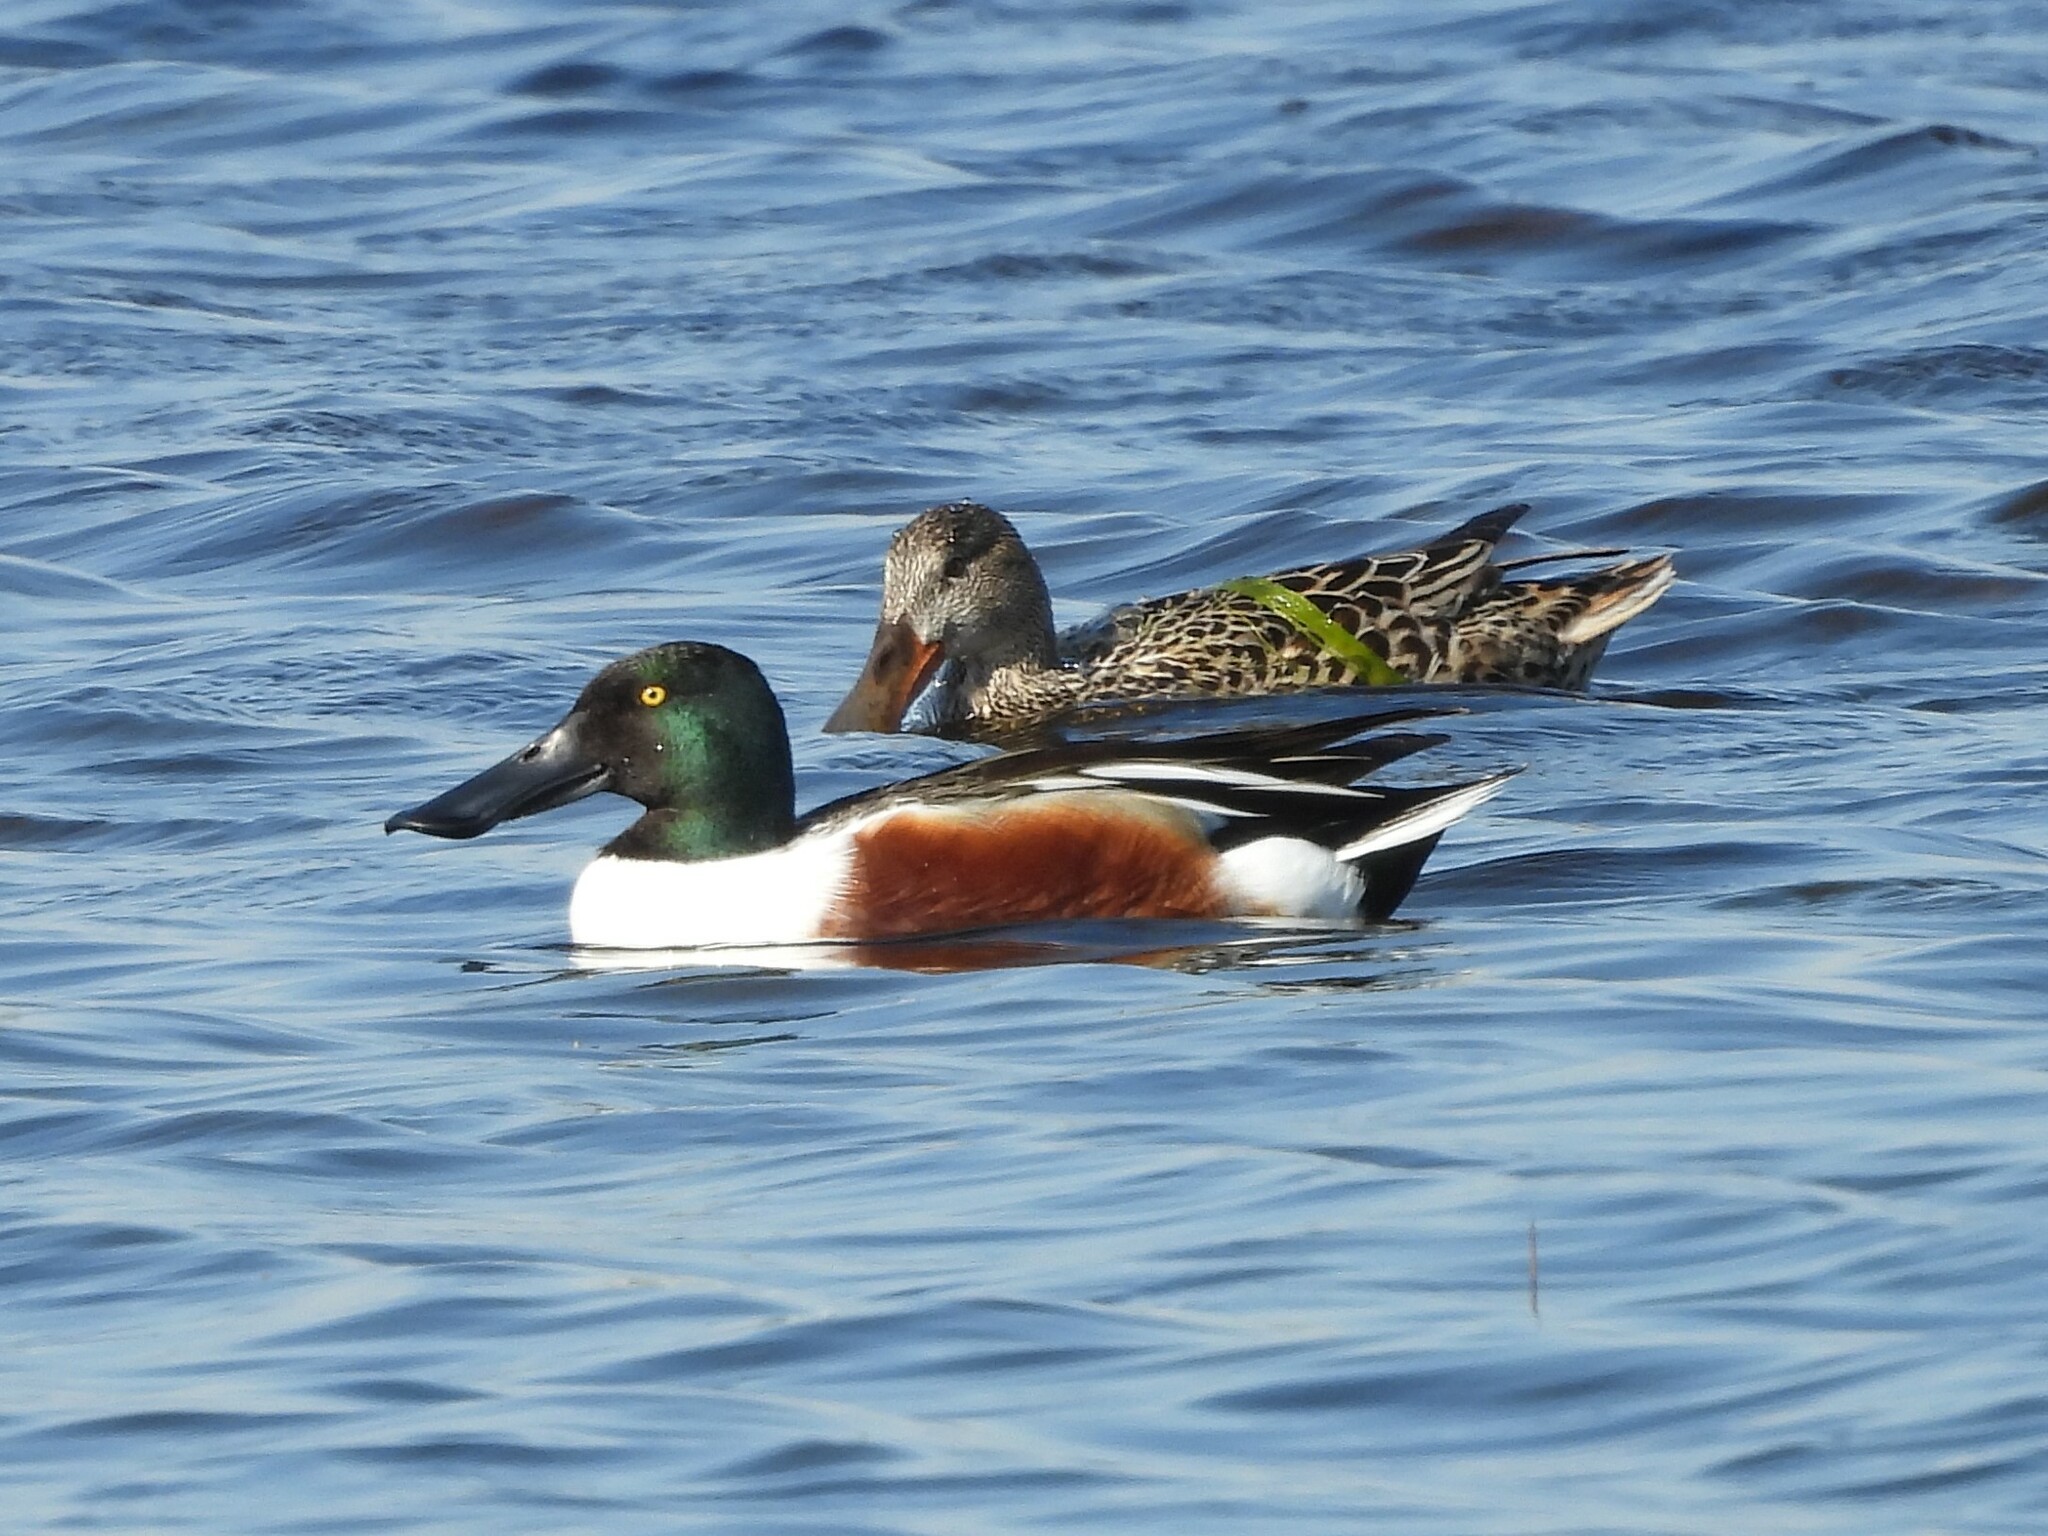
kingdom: Animalia
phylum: Chordata
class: Aves
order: Anseriformes
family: Anatidae
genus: Spatula
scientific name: Spatula clypeata
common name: Northern shoveler
